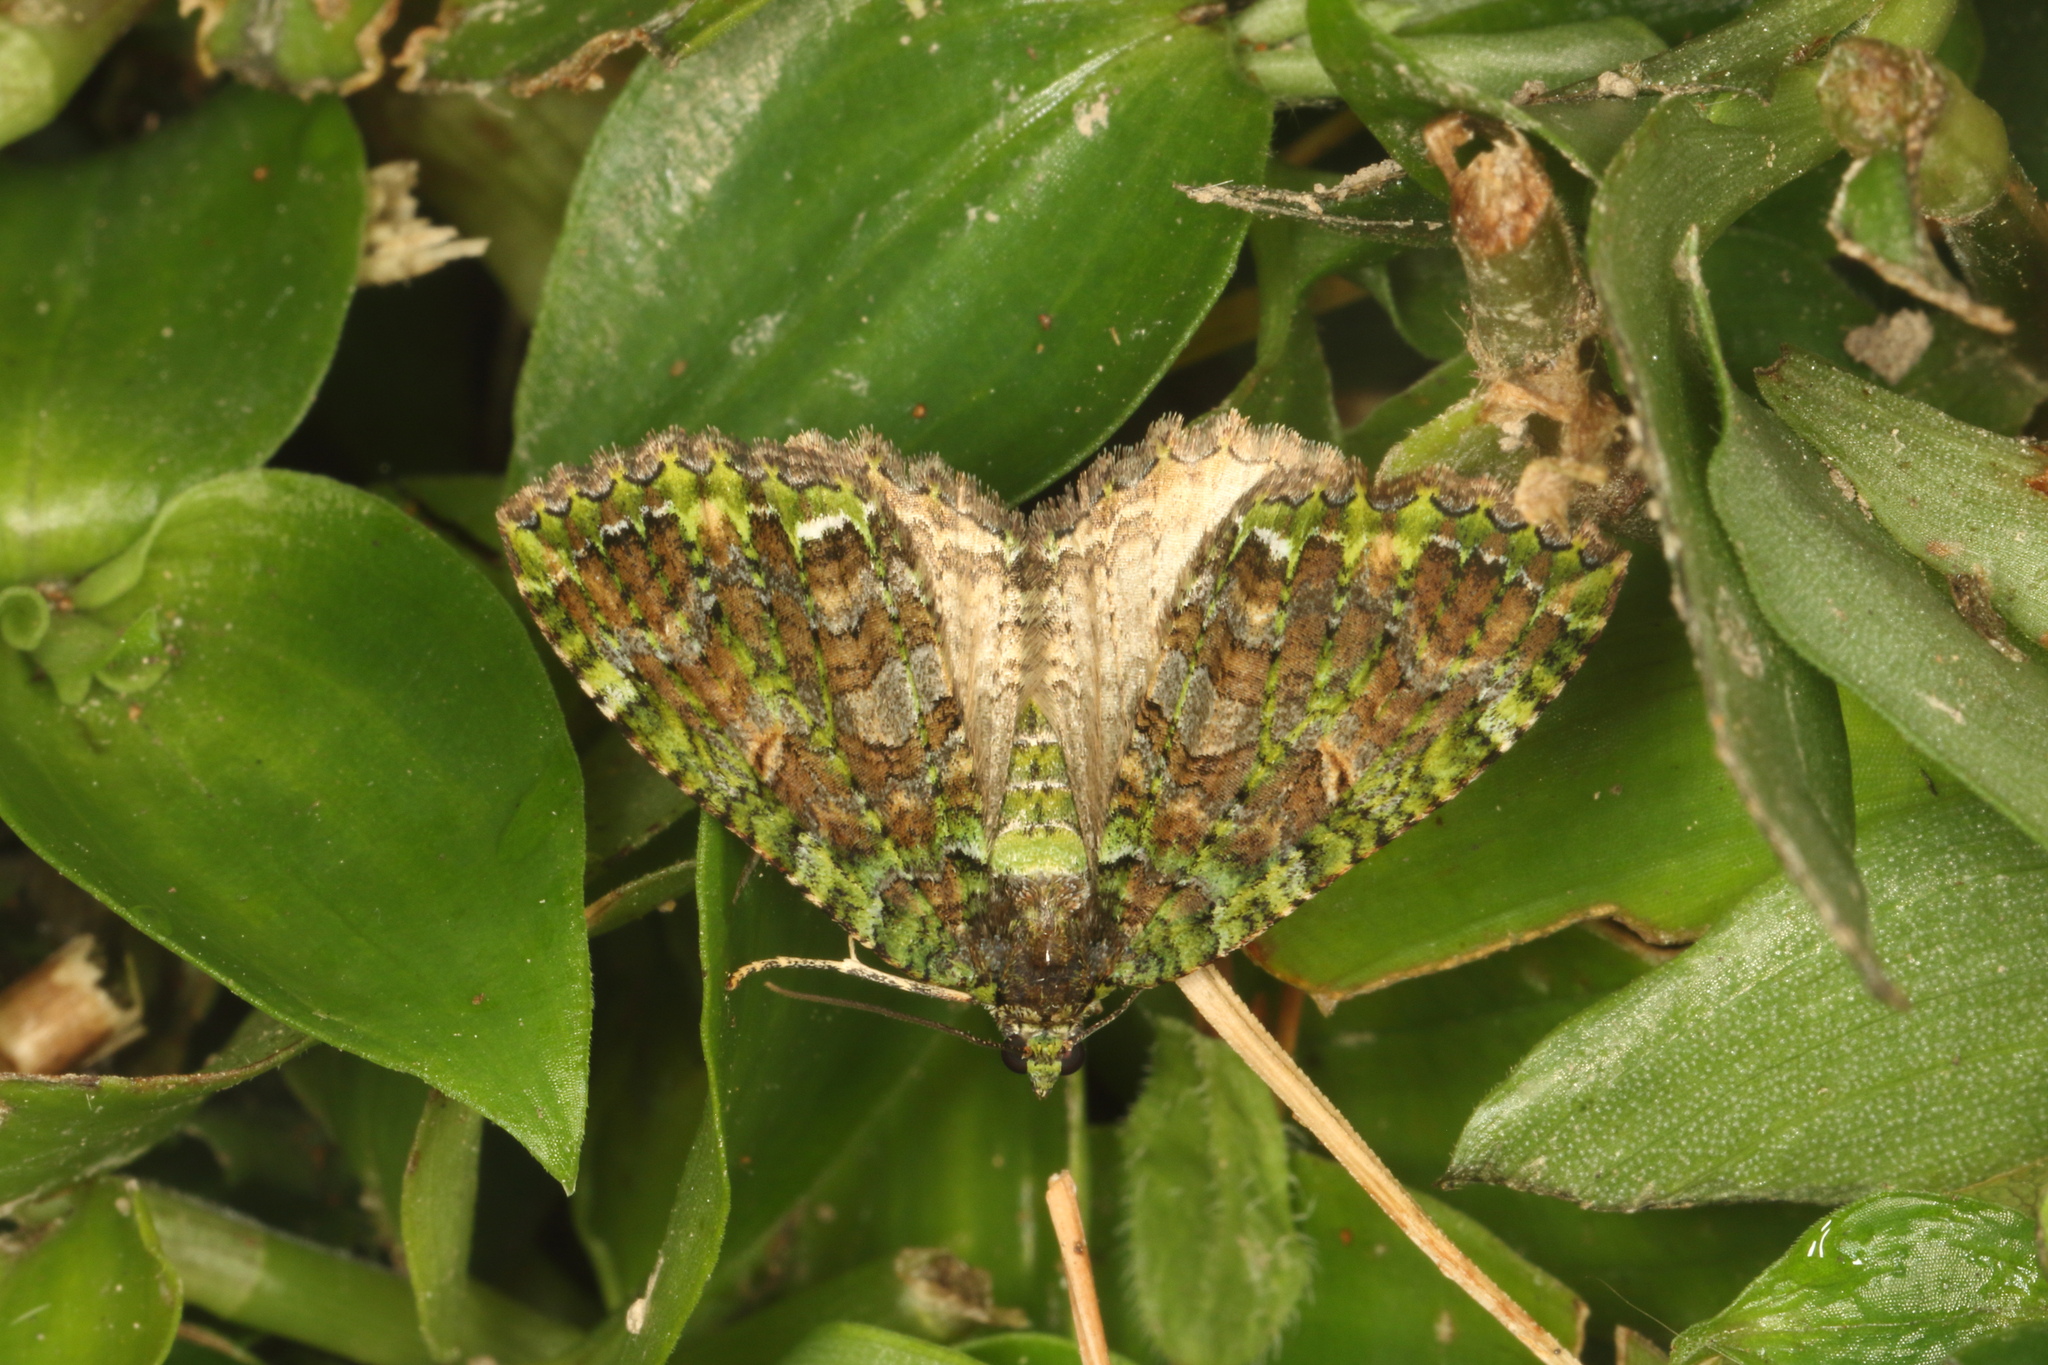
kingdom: Animalia
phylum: Arthropoda
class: Insecta
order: Lepidoptera
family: Geometridae
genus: Austrocidaria
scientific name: Austrocidaria similata
